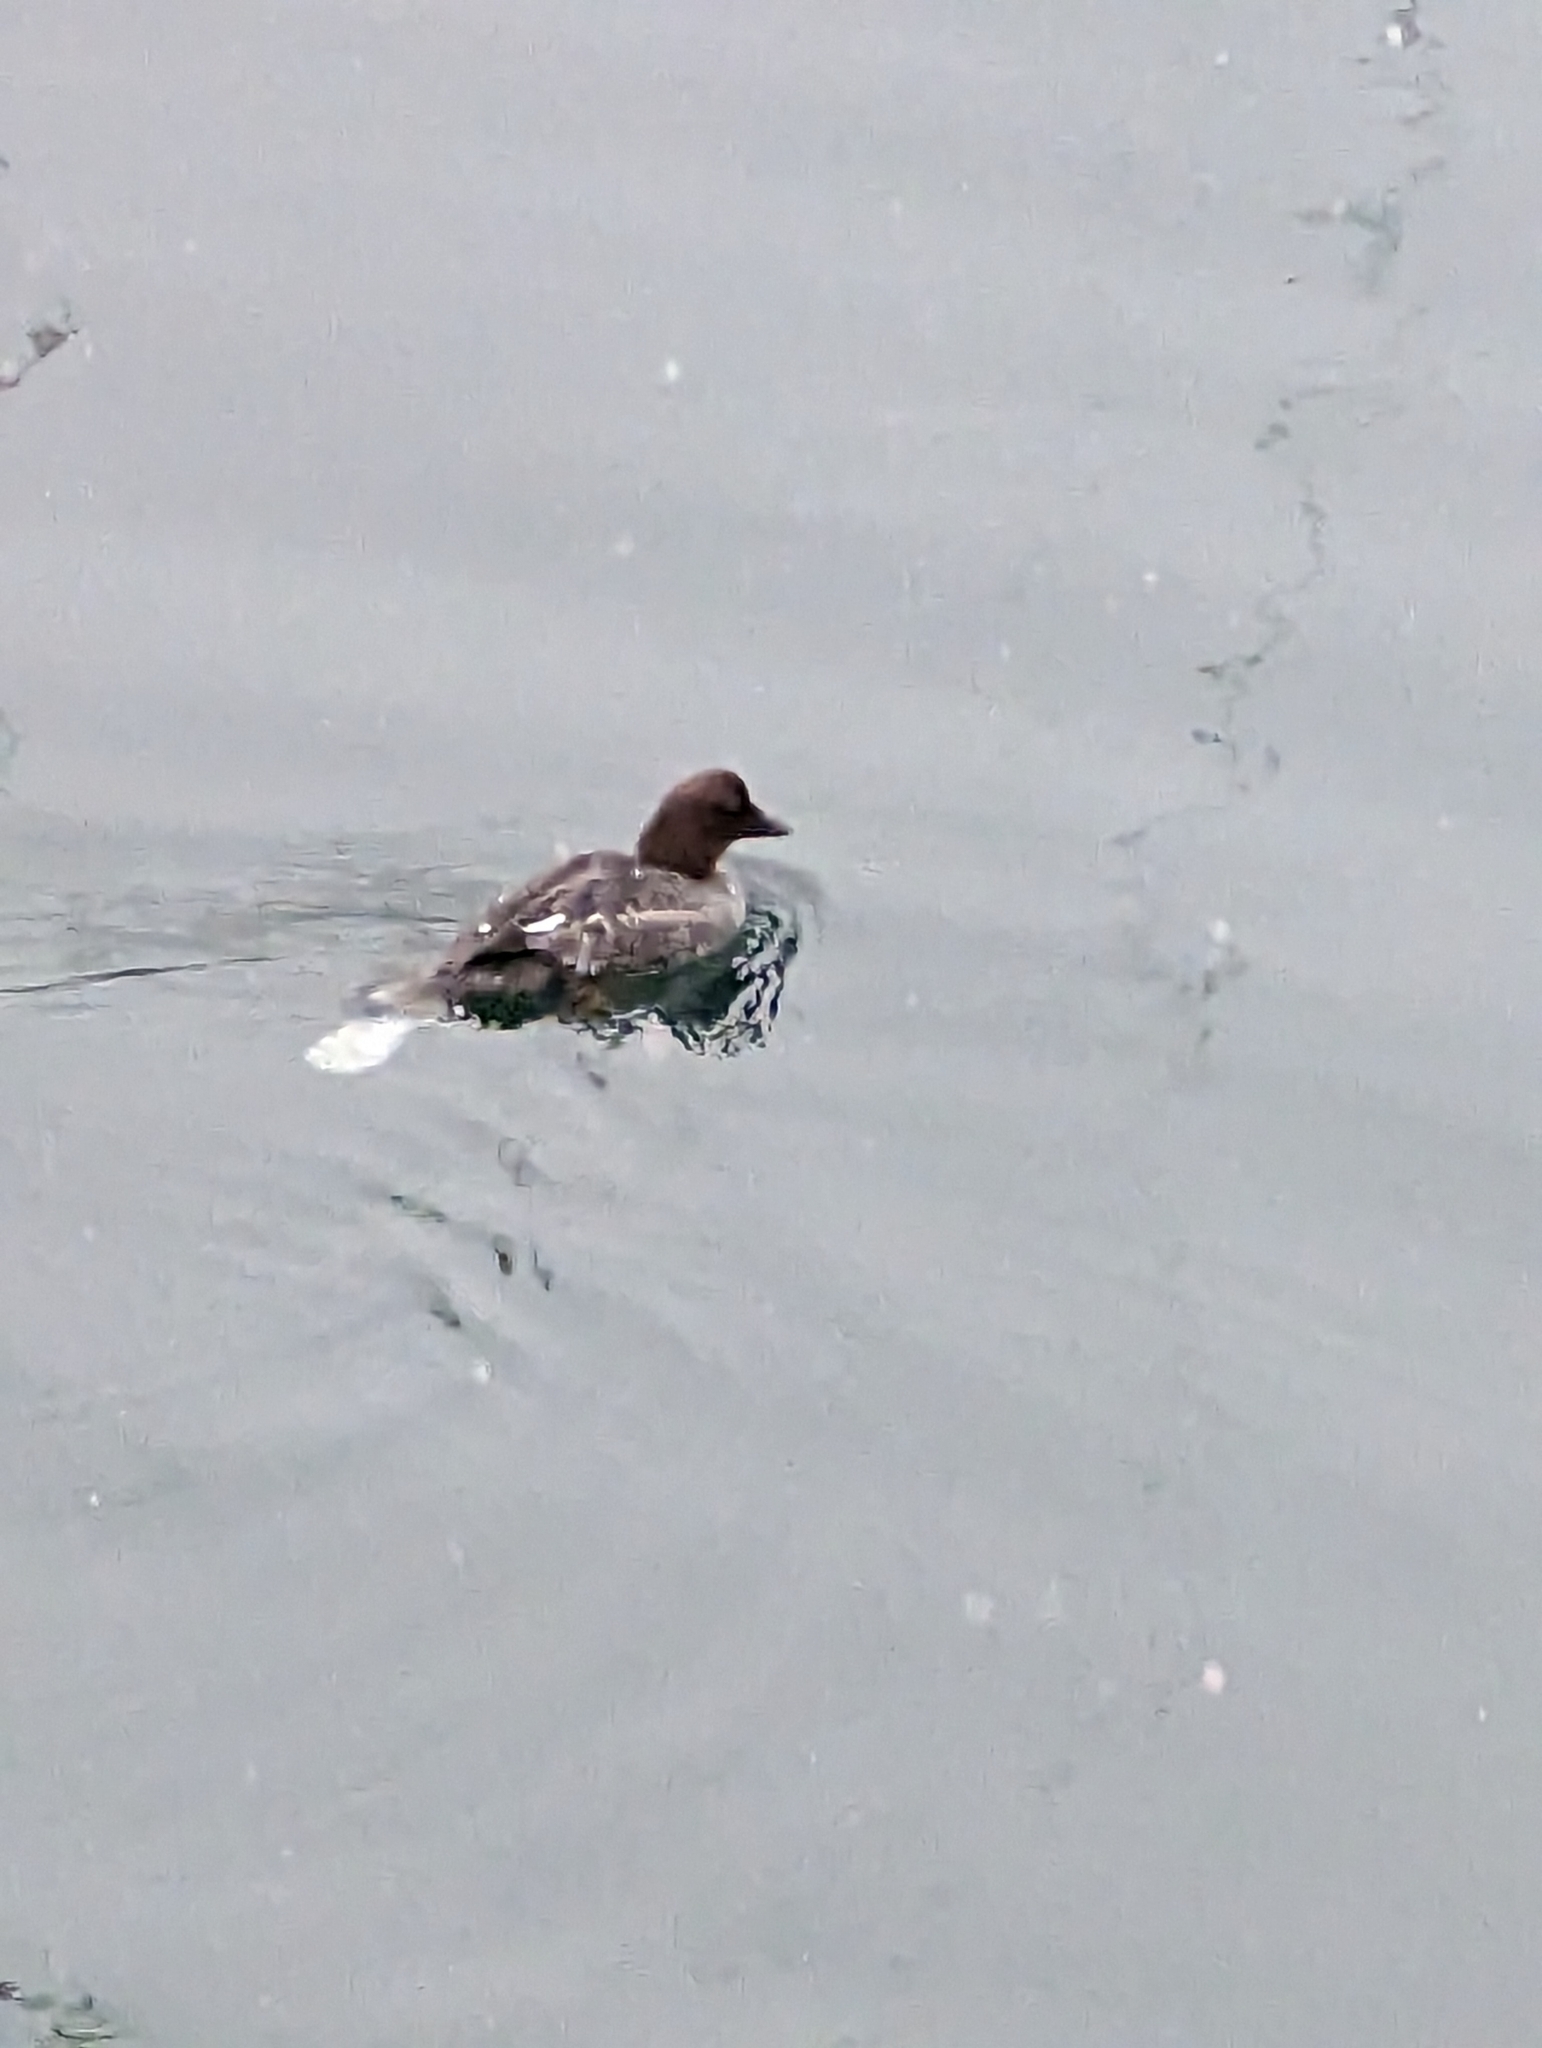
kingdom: Animalia
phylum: Chordata
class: Aves
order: Anseriformes
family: Anatidae
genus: Bucephala
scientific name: Bucephala clangula
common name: Common goldeneye
